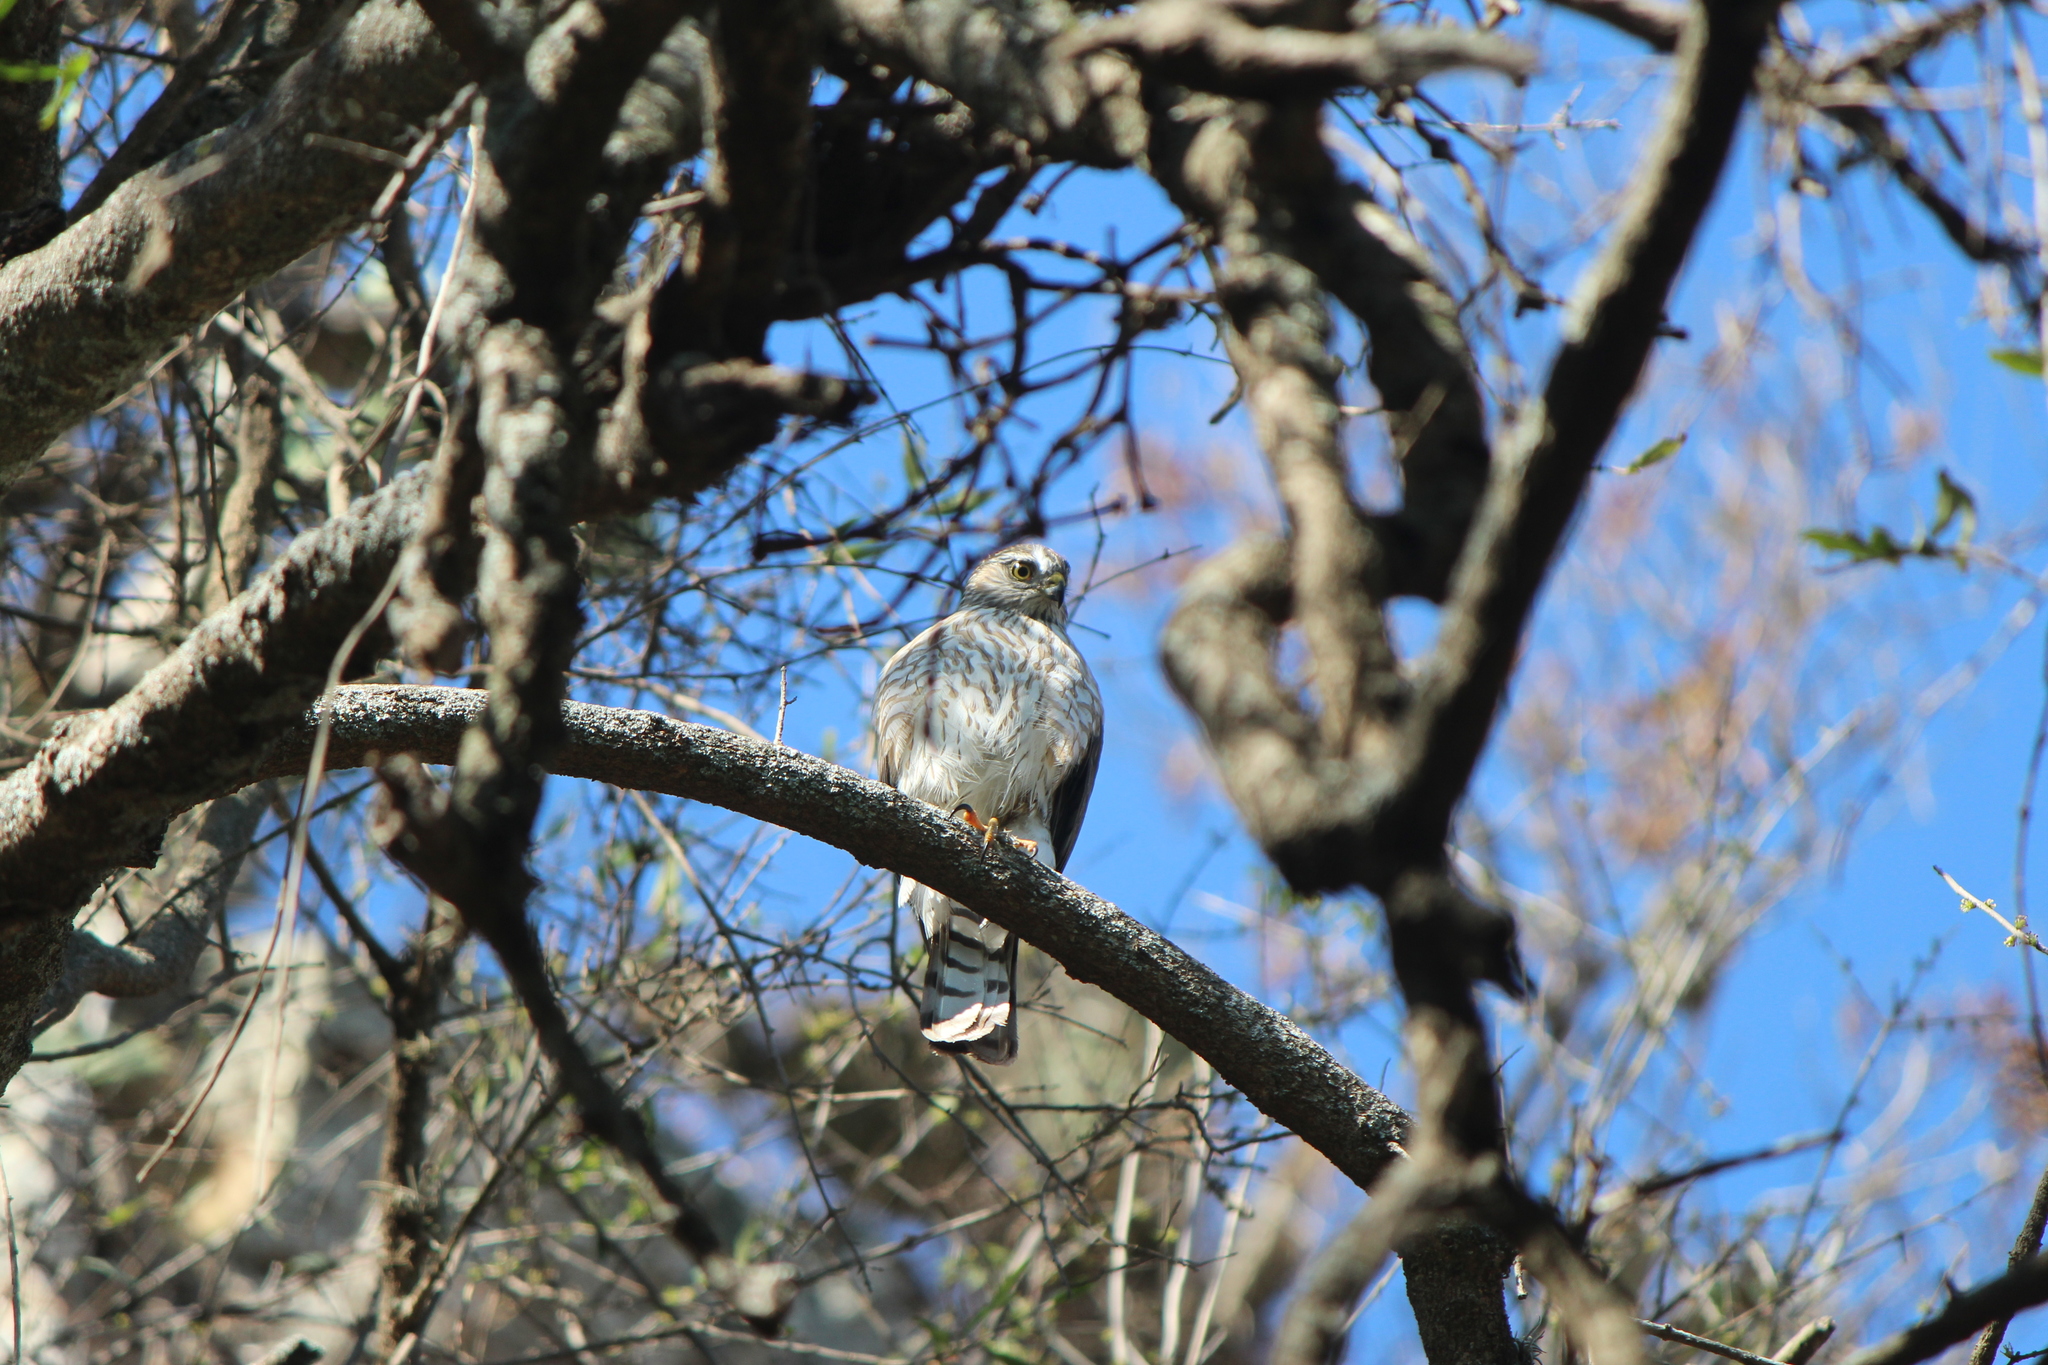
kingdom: Animalia
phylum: Chordata
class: Aves
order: Accipitriformes
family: Accipitridae
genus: Accipiter
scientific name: Accipiter striatus
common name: Sharp-shinned hawk
